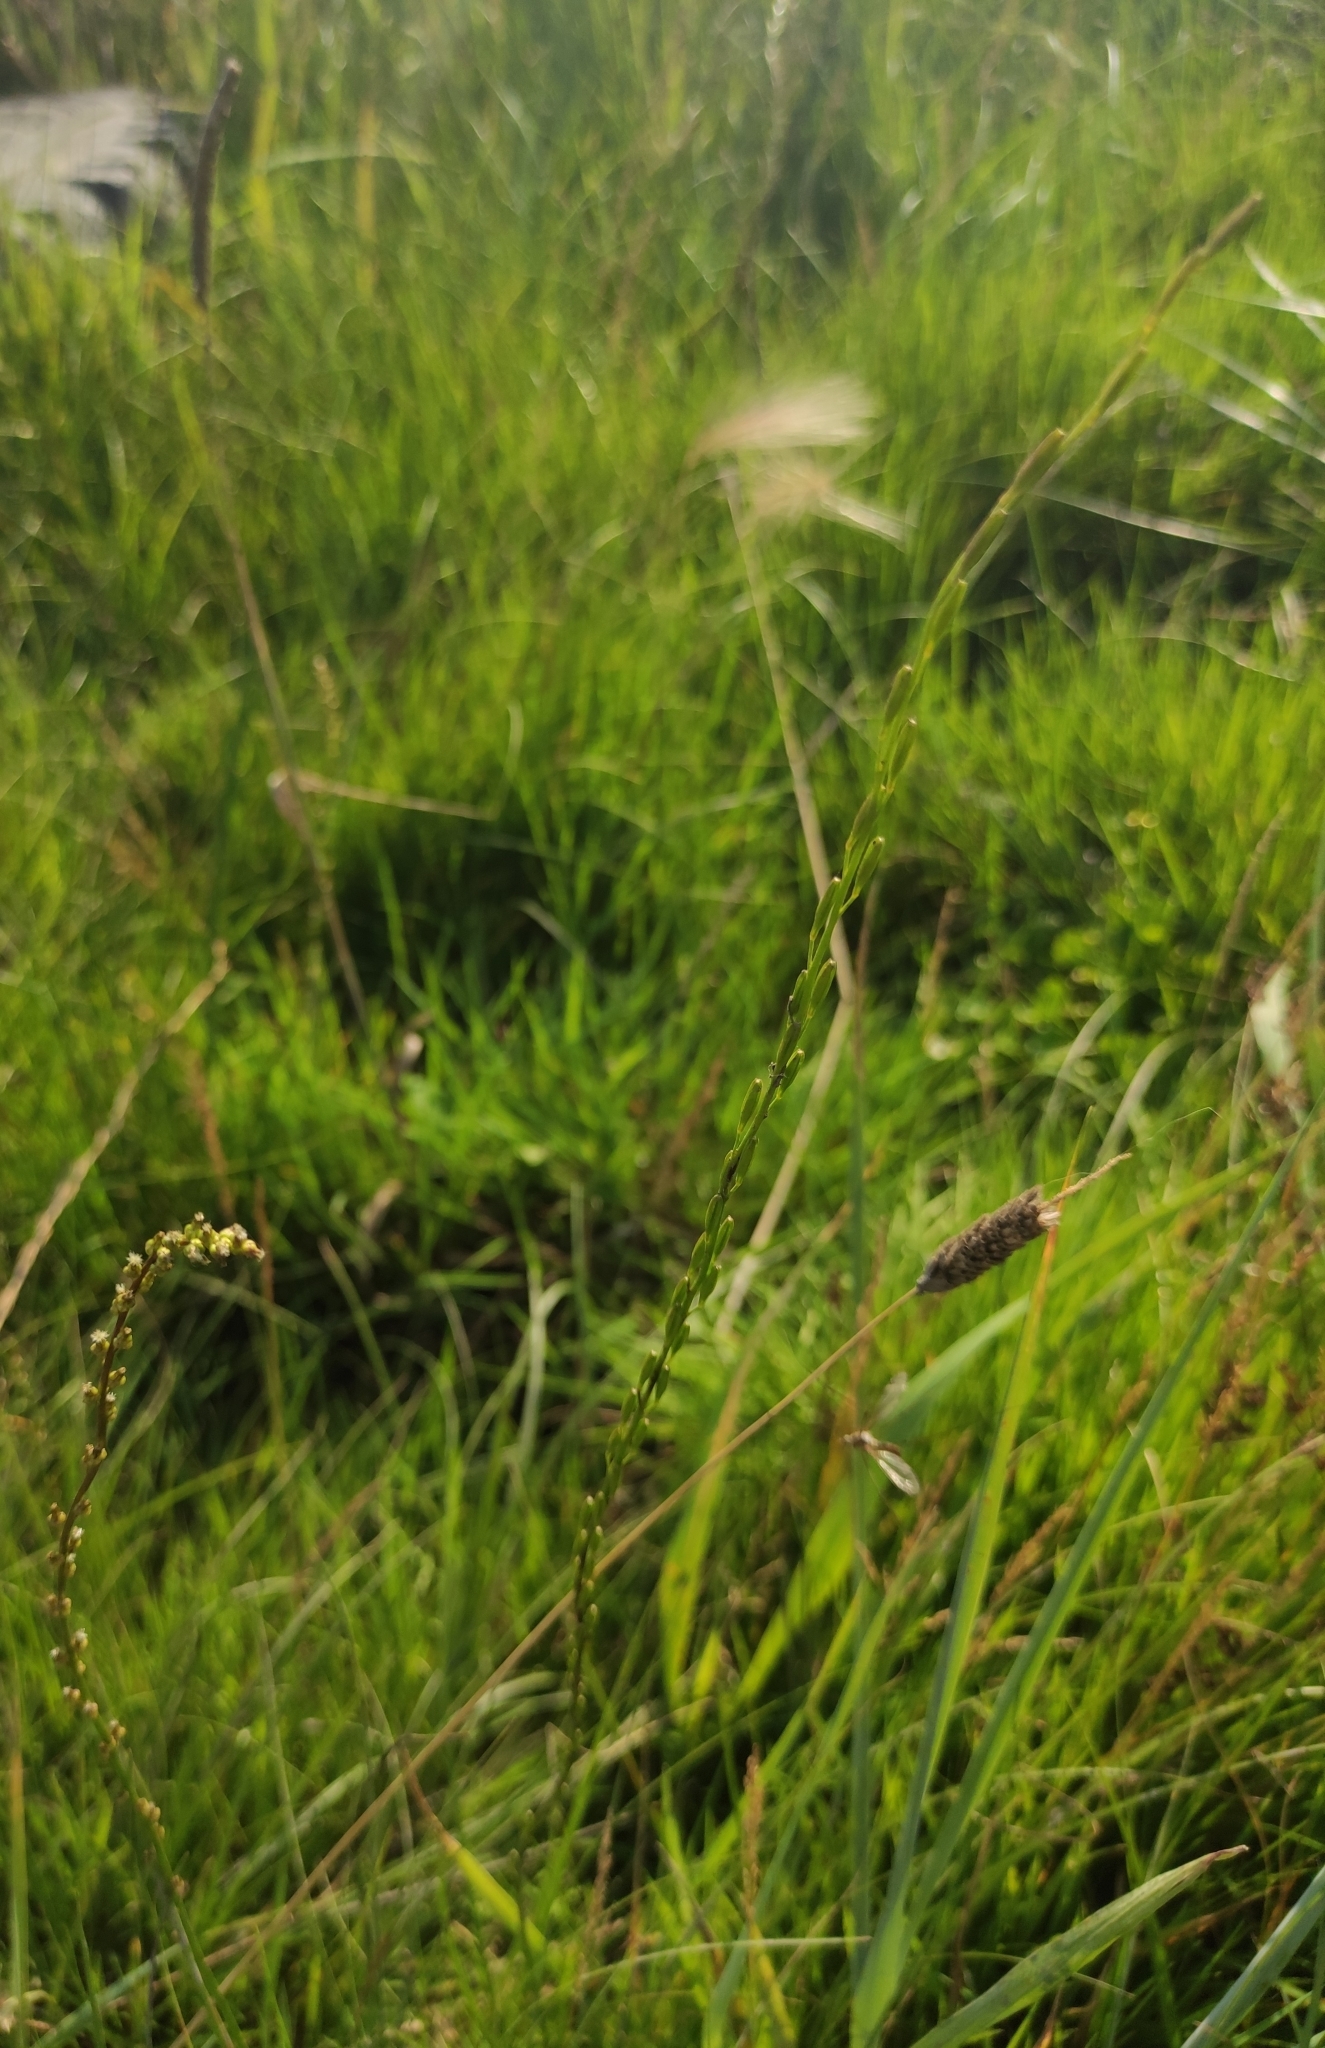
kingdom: Plantae
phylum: Tracheophyta
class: Liliopsida
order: Alismatales
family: Juncaginaceae
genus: Triglochin
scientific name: Triglochin palustris
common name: Marsh arrowgrass
